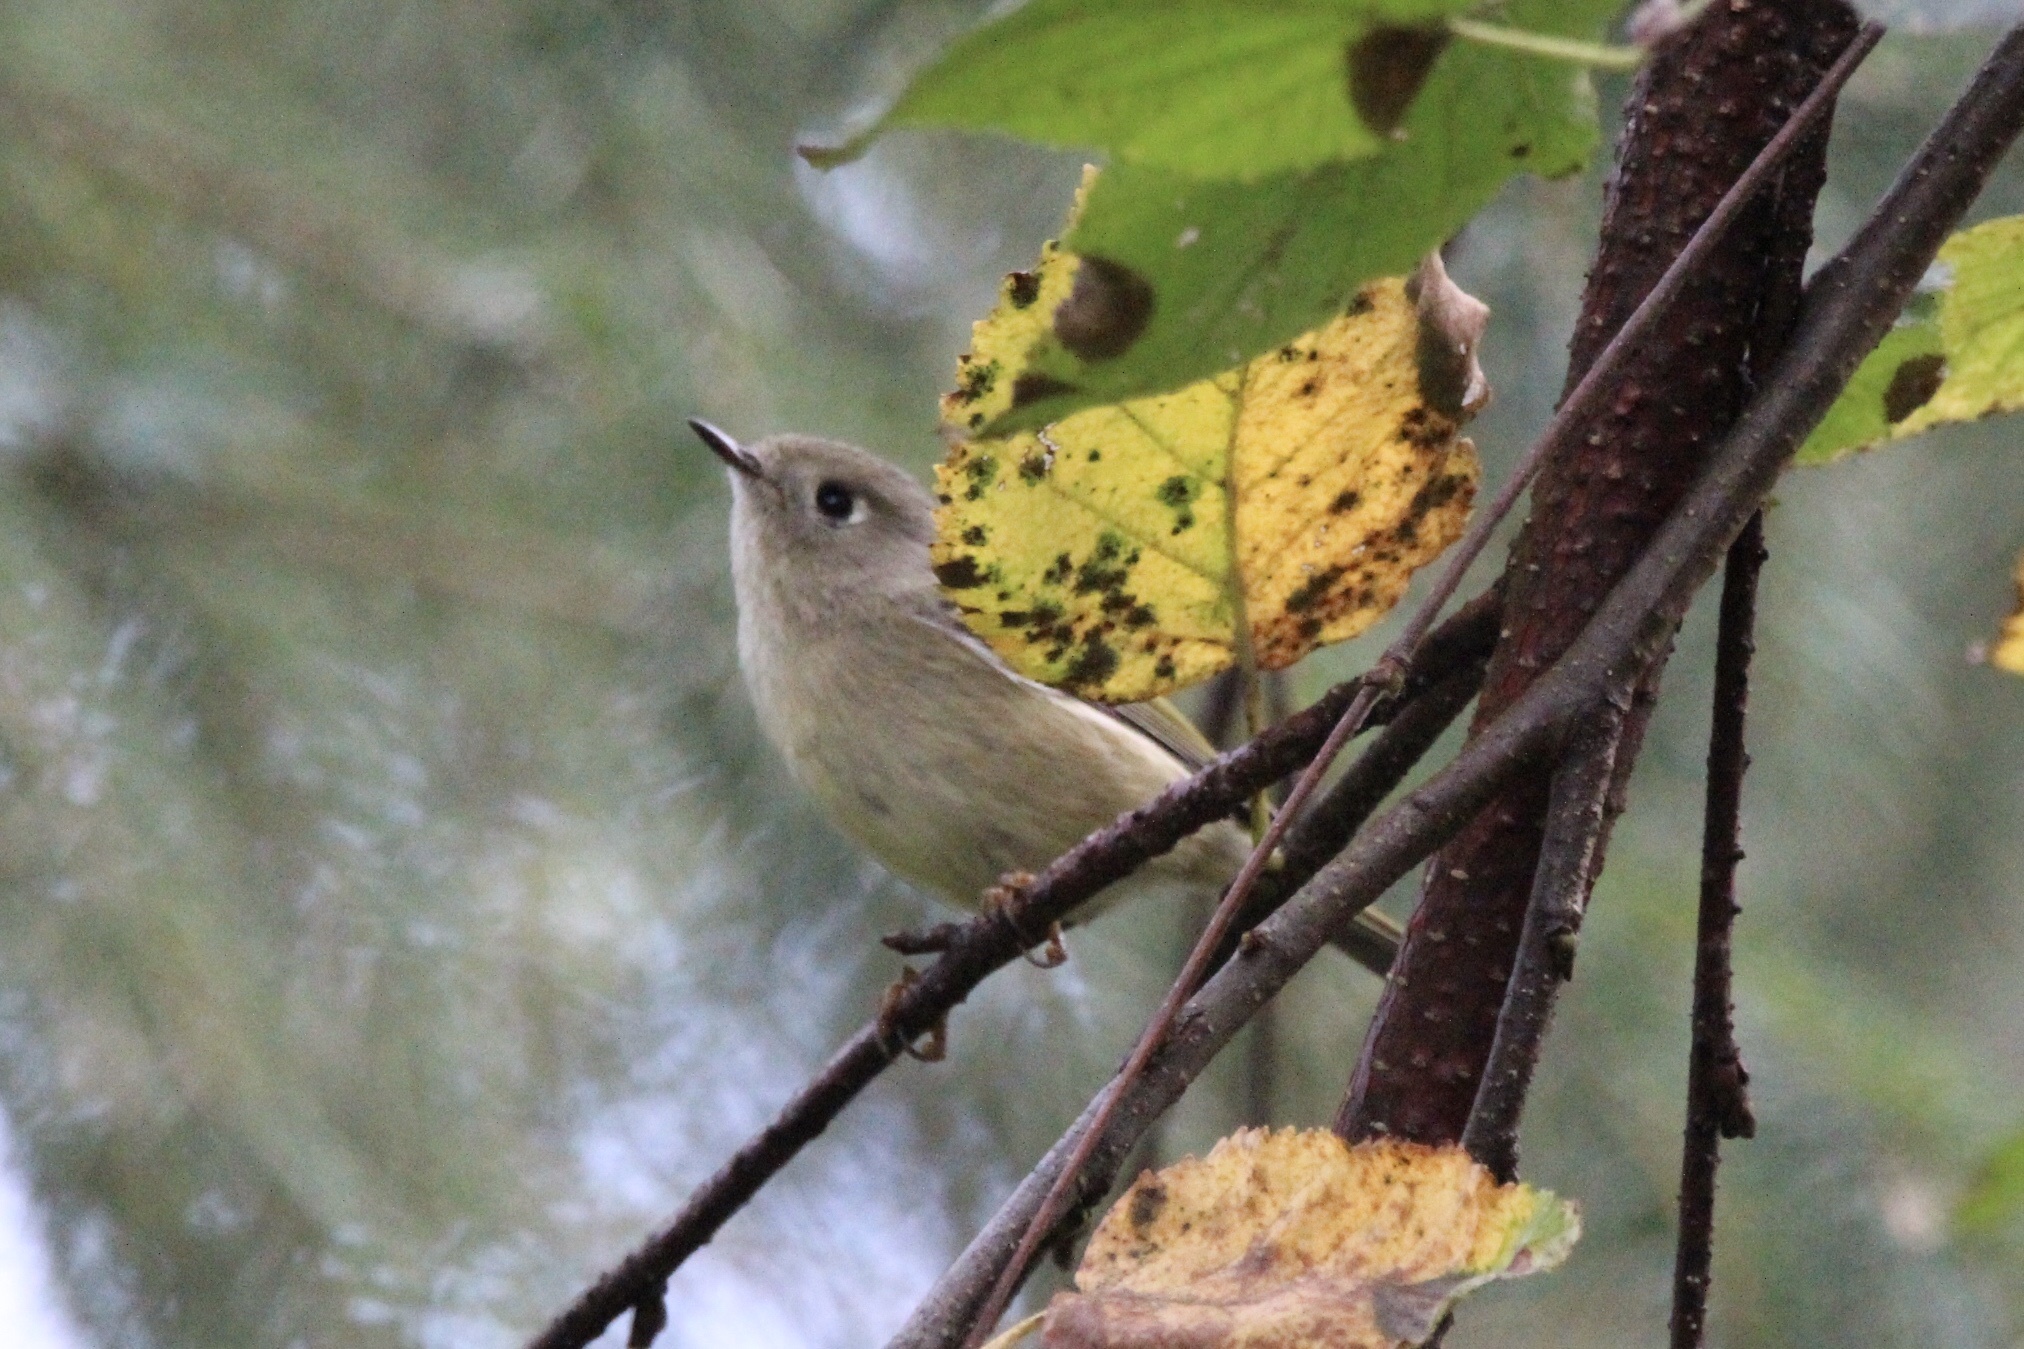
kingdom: Animalia
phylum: Chordata
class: Aves
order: Passeriformes
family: Regulidae
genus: Regulus
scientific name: Regulus calendula
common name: Ruby-crowned kinglet
